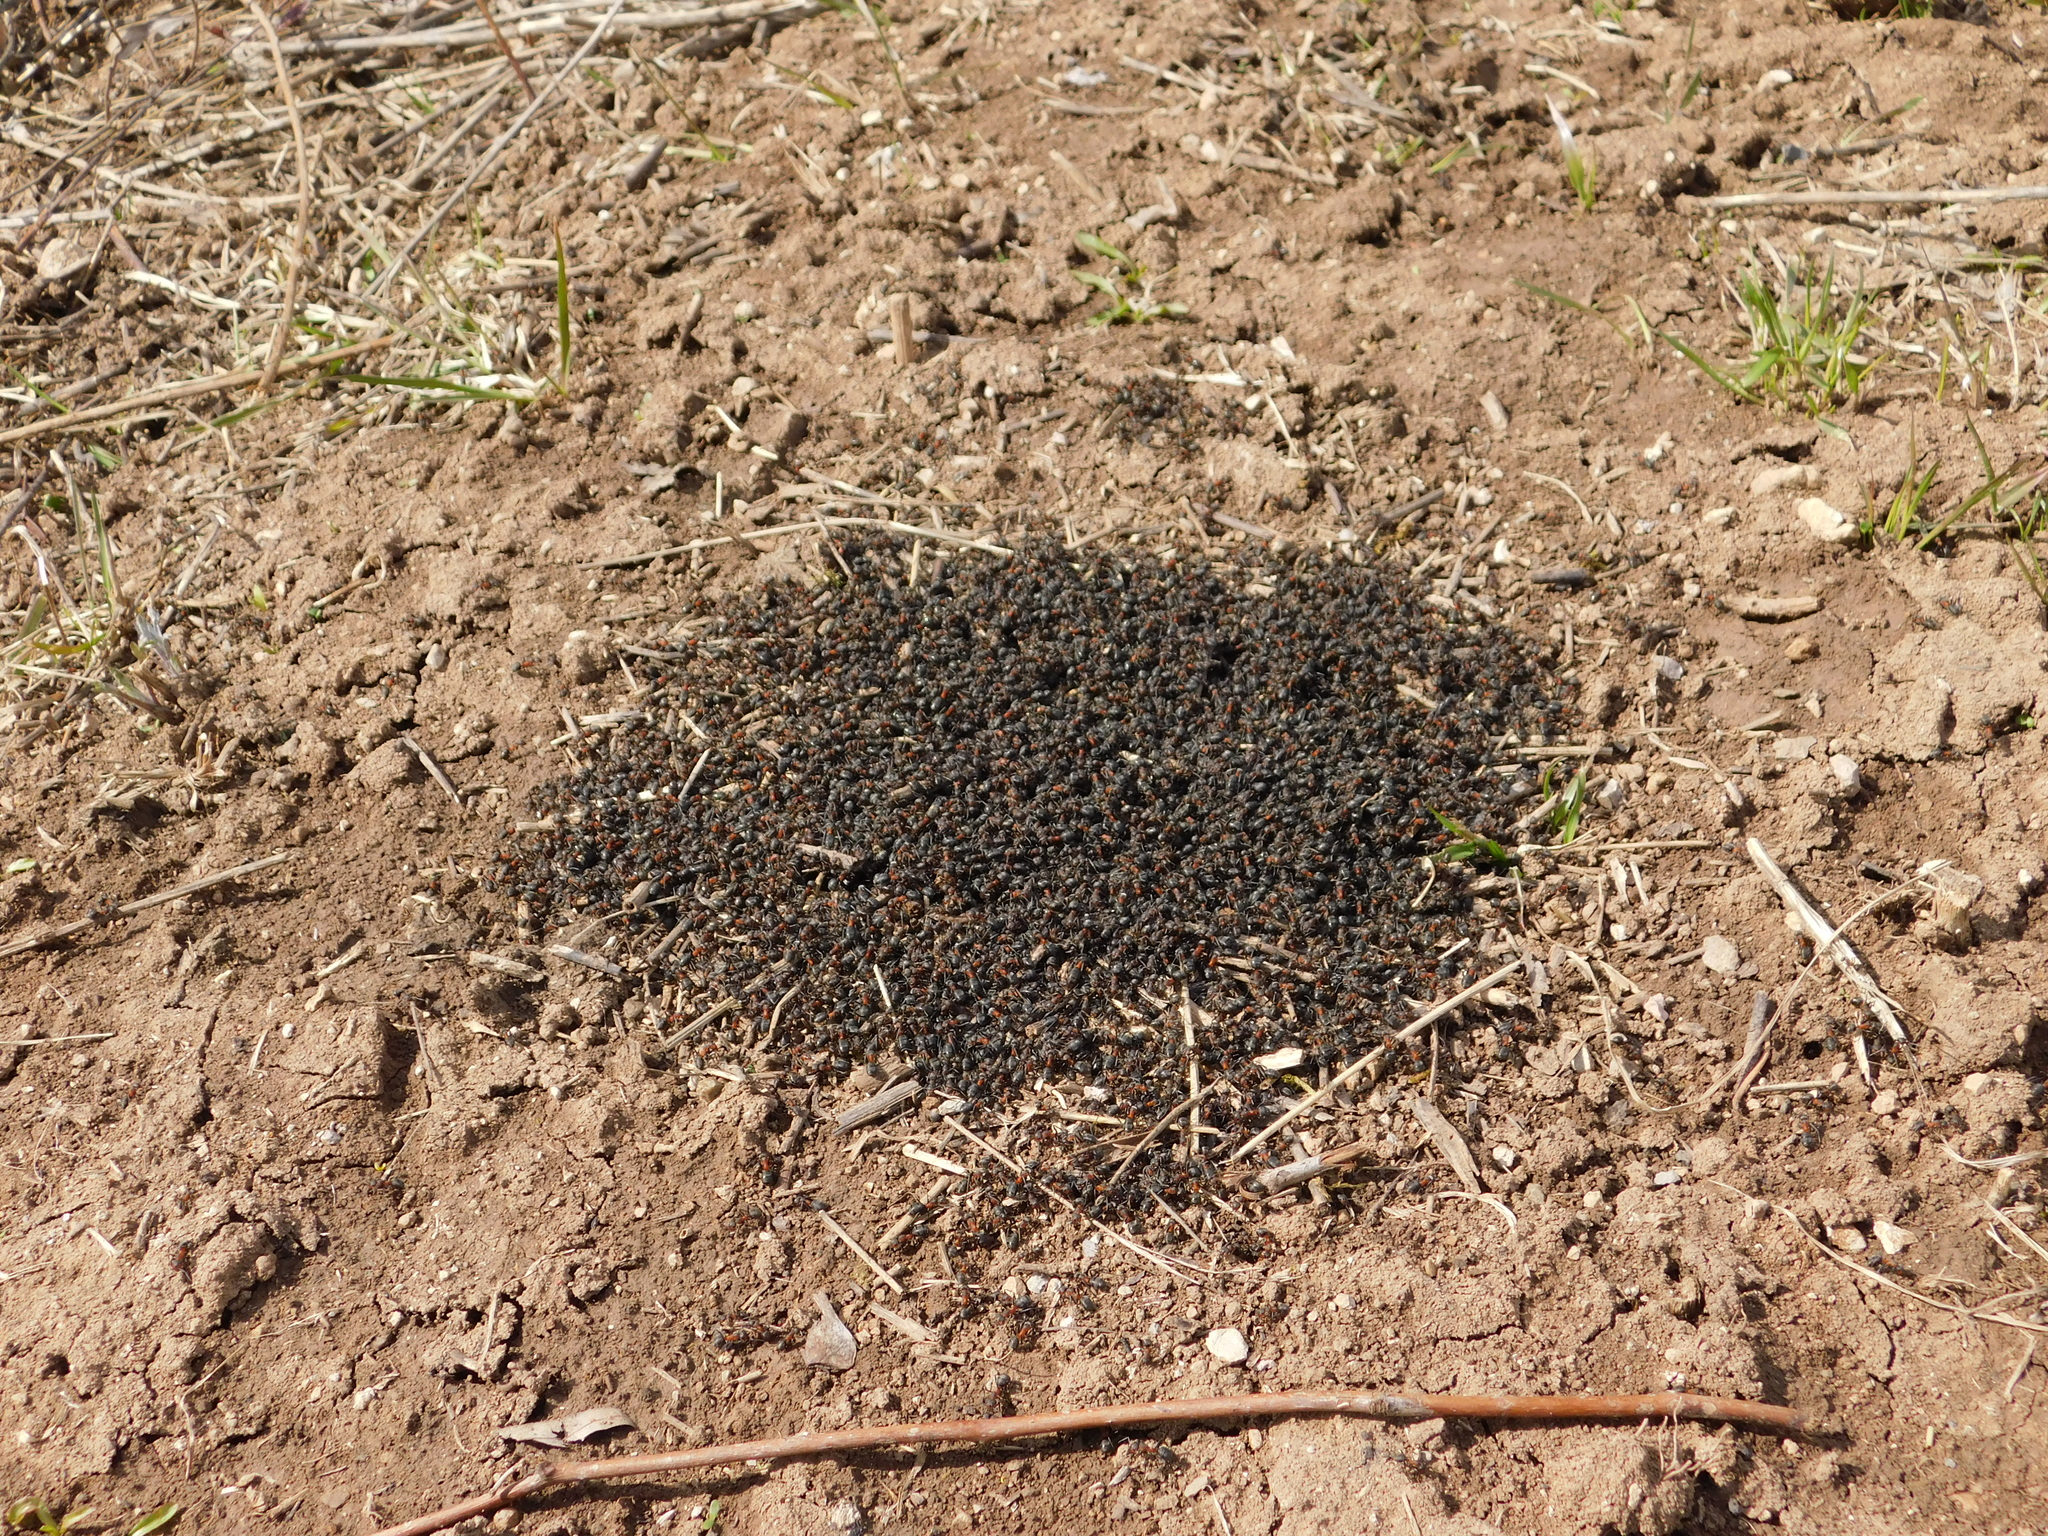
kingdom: Animalia
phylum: Arthropoda
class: Insecta
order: Hymenoptera
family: Formicidae
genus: Formica
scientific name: Formica pratensis
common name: European red wood ant
